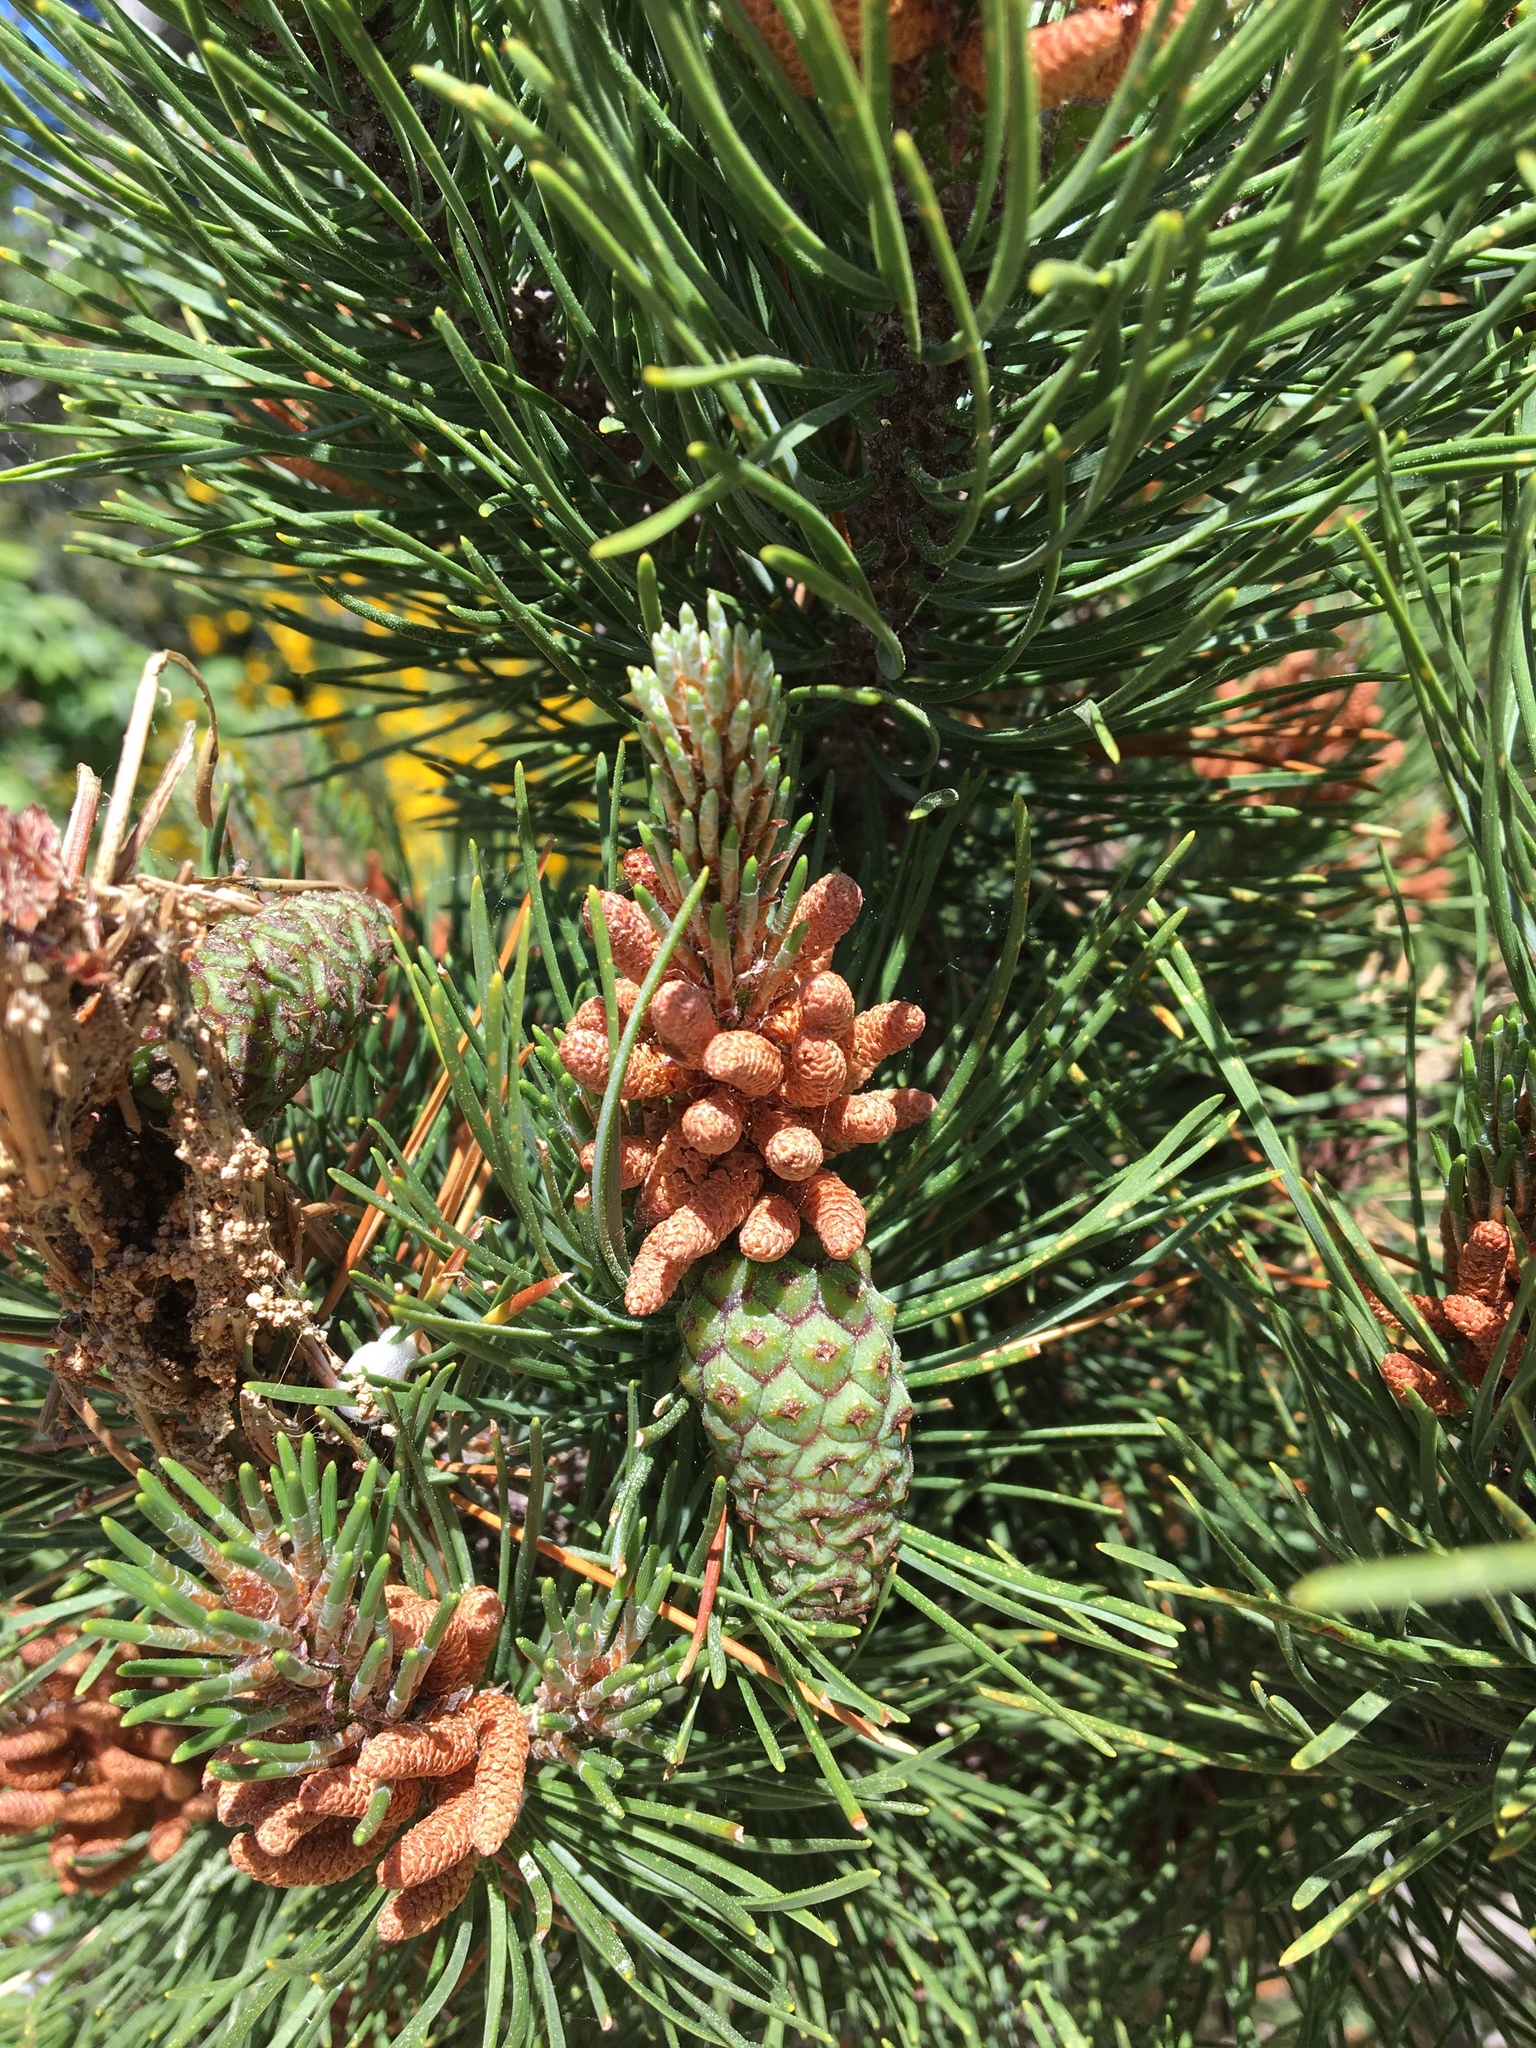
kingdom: Plantae
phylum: Tracheophyta
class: Pinopsida
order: Pinales
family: Pinaceae
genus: Pinus
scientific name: Pinus contorta
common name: Lodgepole pine
